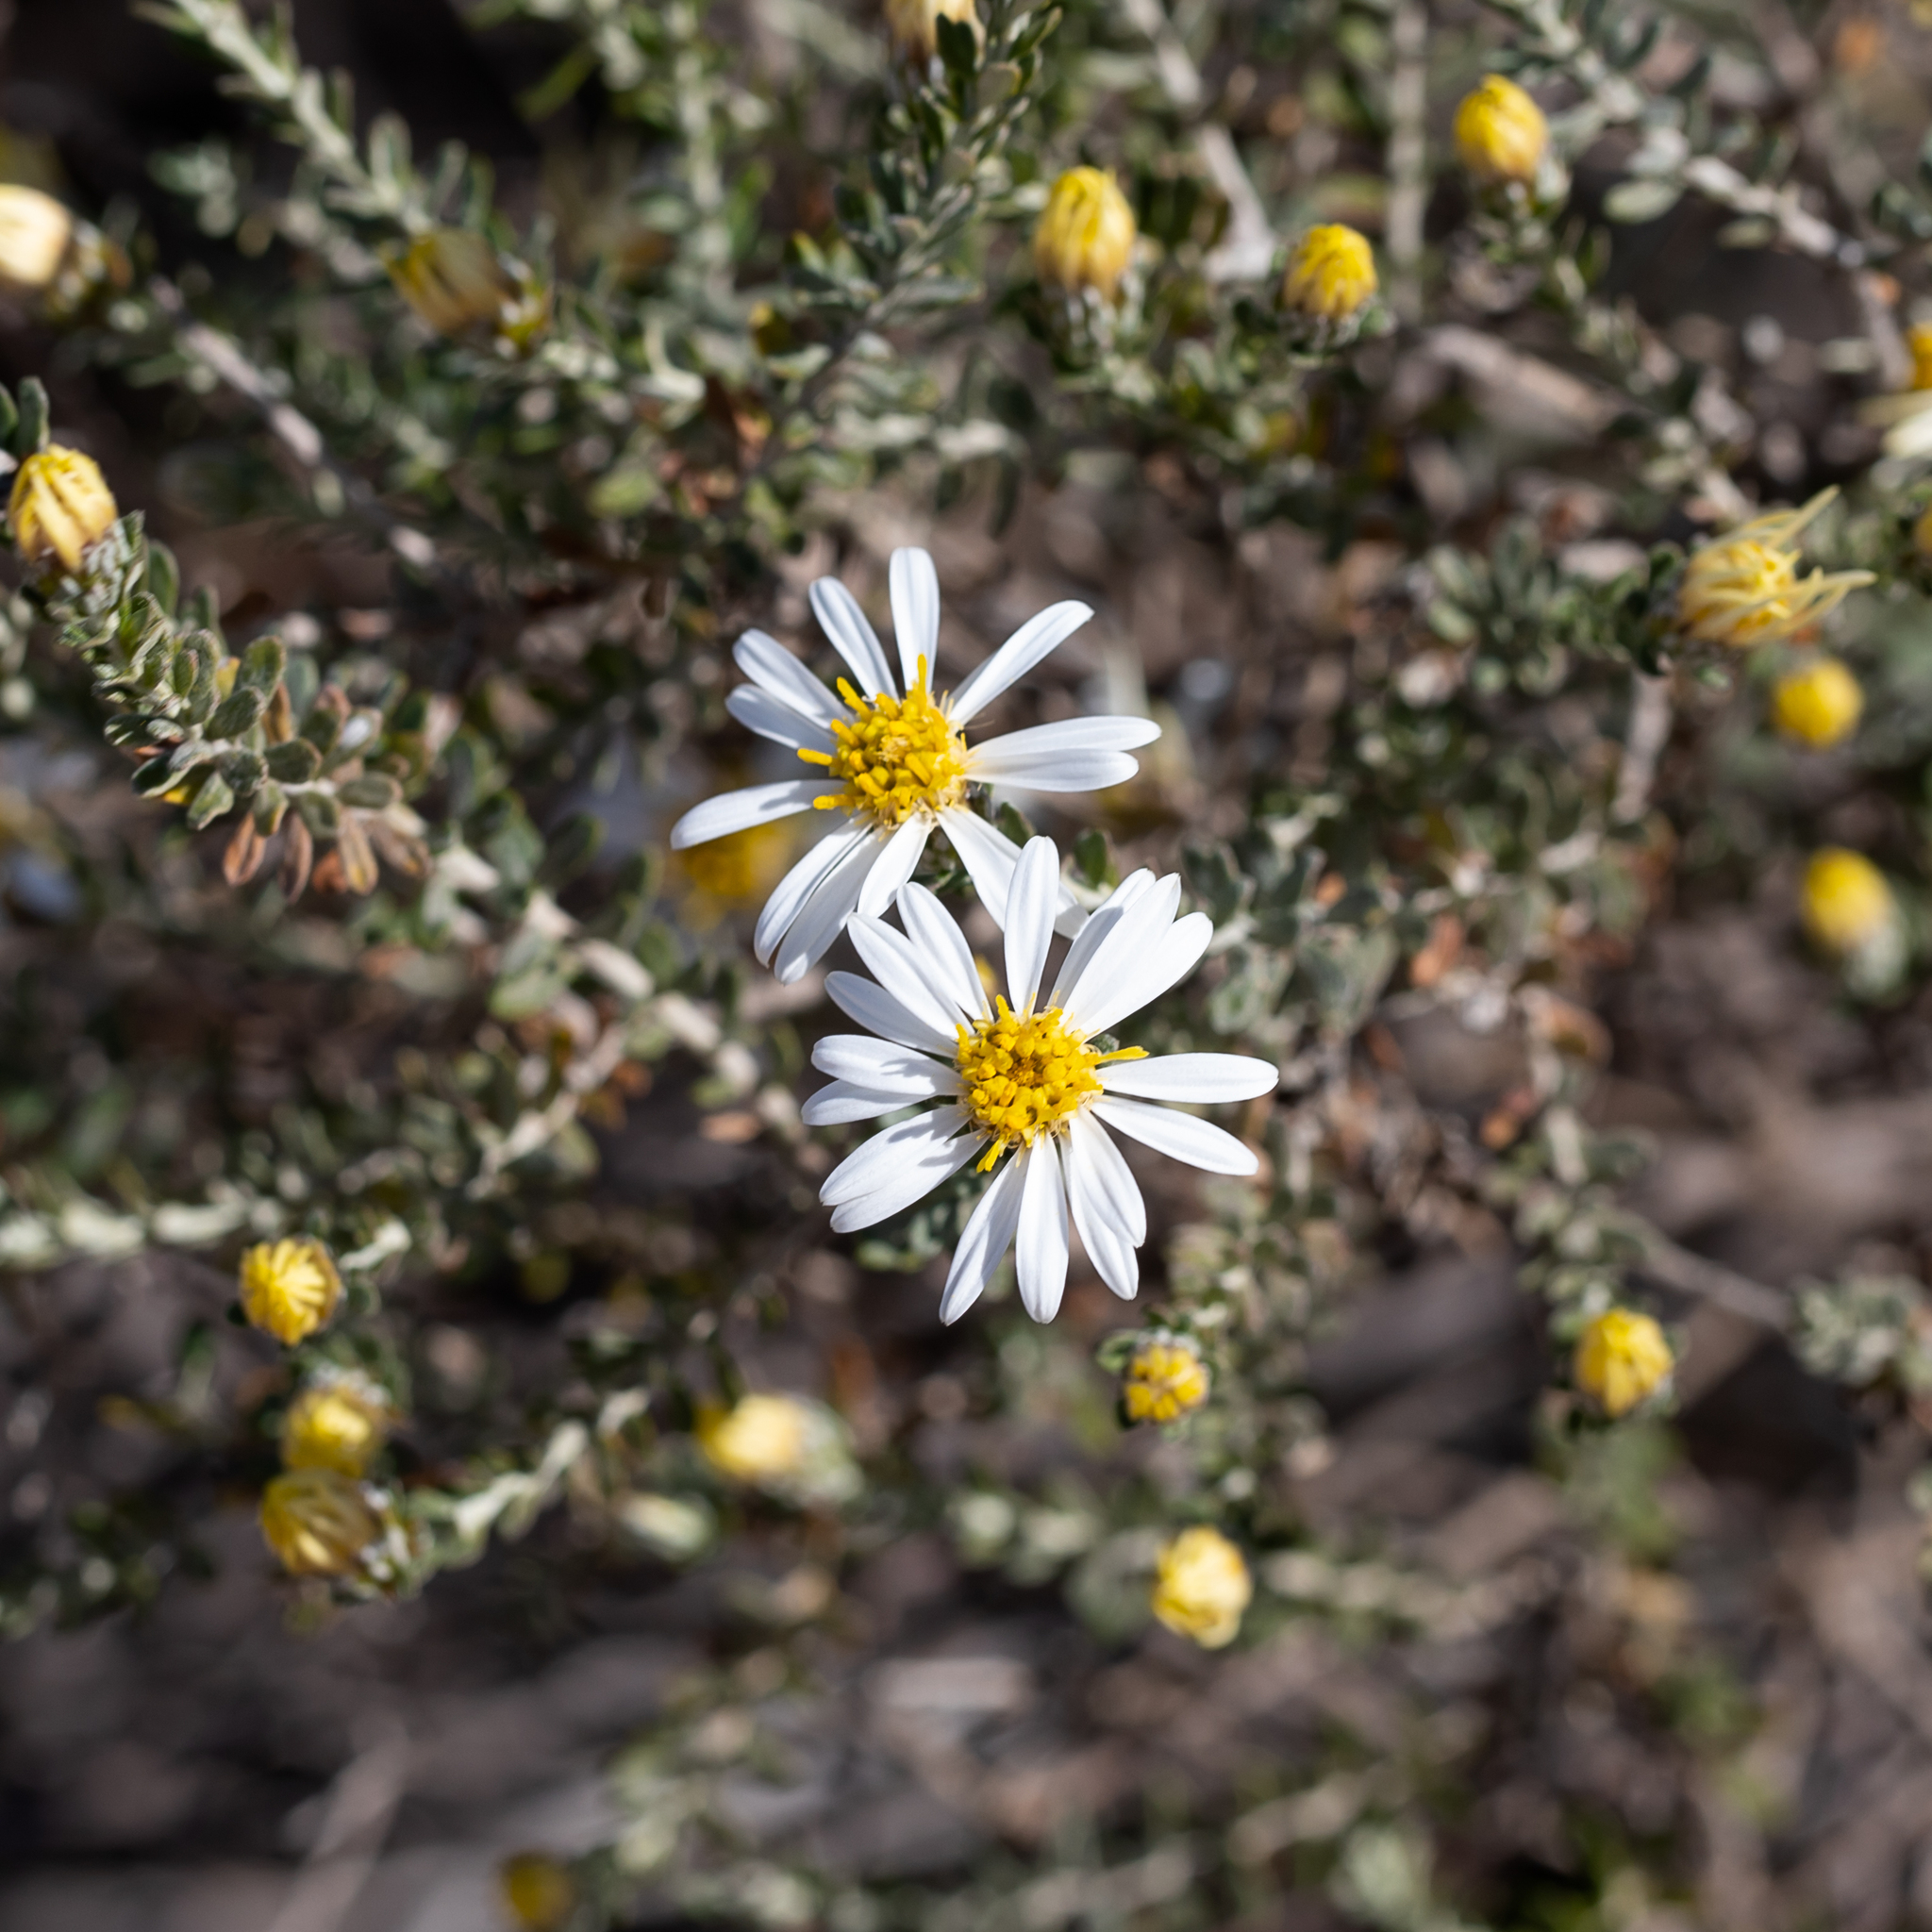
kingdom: Plantae
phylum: Tracheophyta
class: Magnoliopsida
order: Asterales
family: Asteraceae
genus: Olearia
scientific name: Olearia pimeleoides
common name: Showy daisybush
